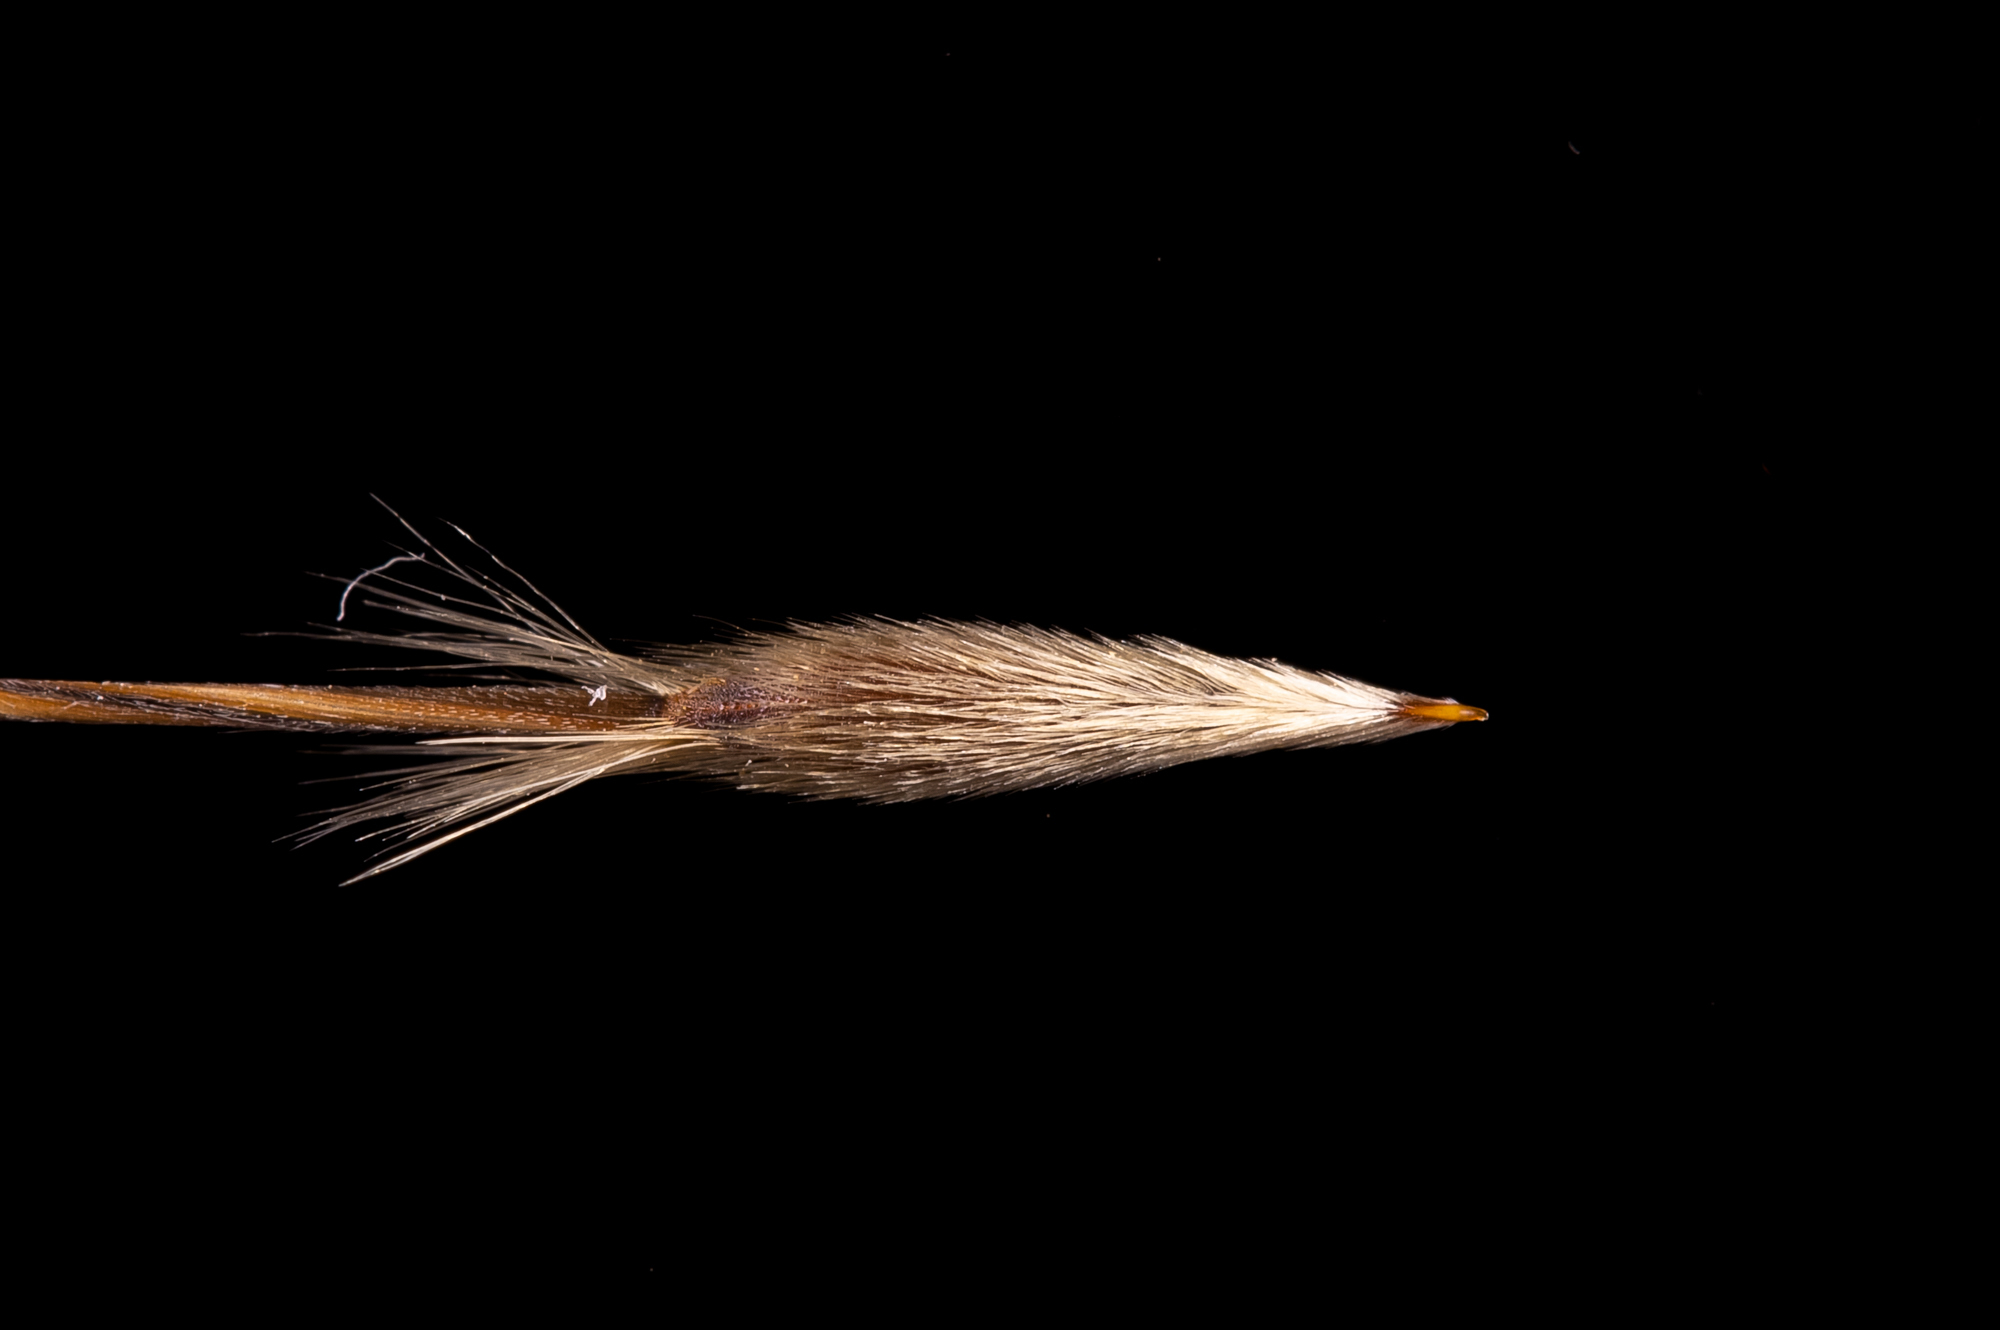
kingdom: Plantae
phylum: Tracheophyta
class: Liliopsida
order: Poales
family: Poaceae
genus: Austrostipa
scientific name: Austrostipa blackii
